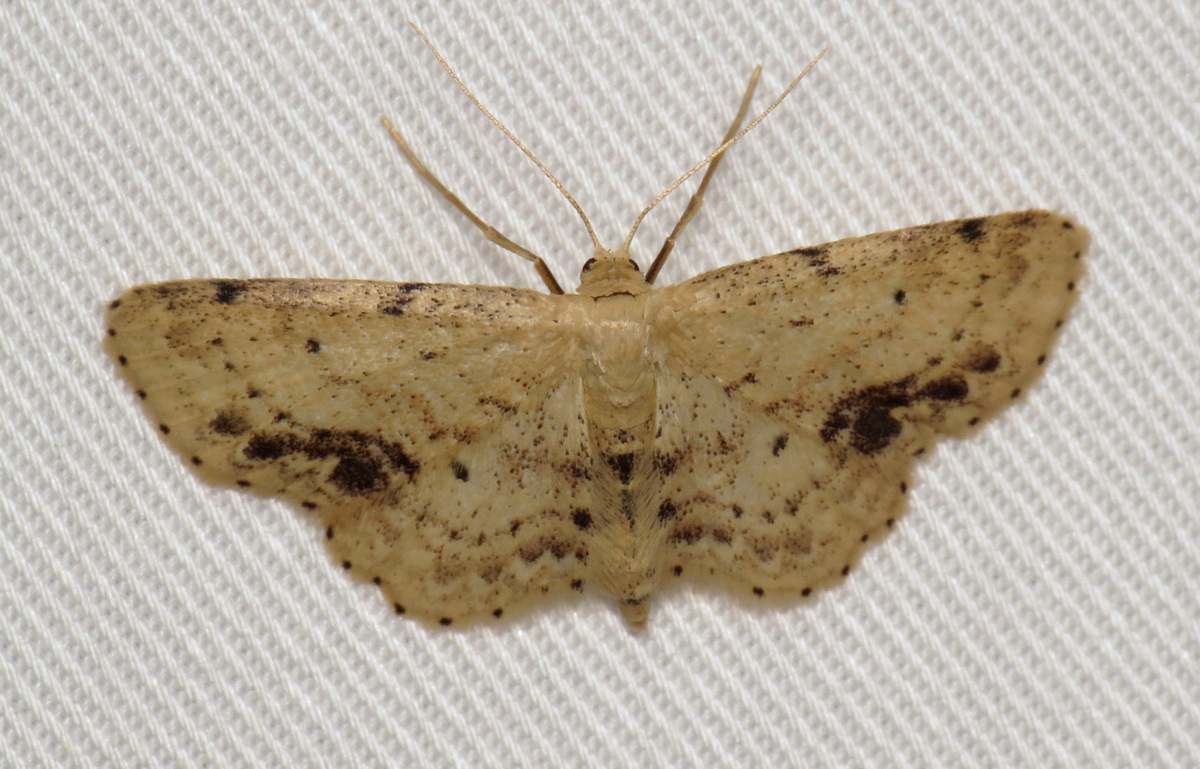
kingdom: Animalia
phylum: Arthropoda
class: Insecta
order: Lepidoptera
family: Geometridae
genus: Idaea
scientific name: Idaea dimidiata
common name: Single-dotted wave
